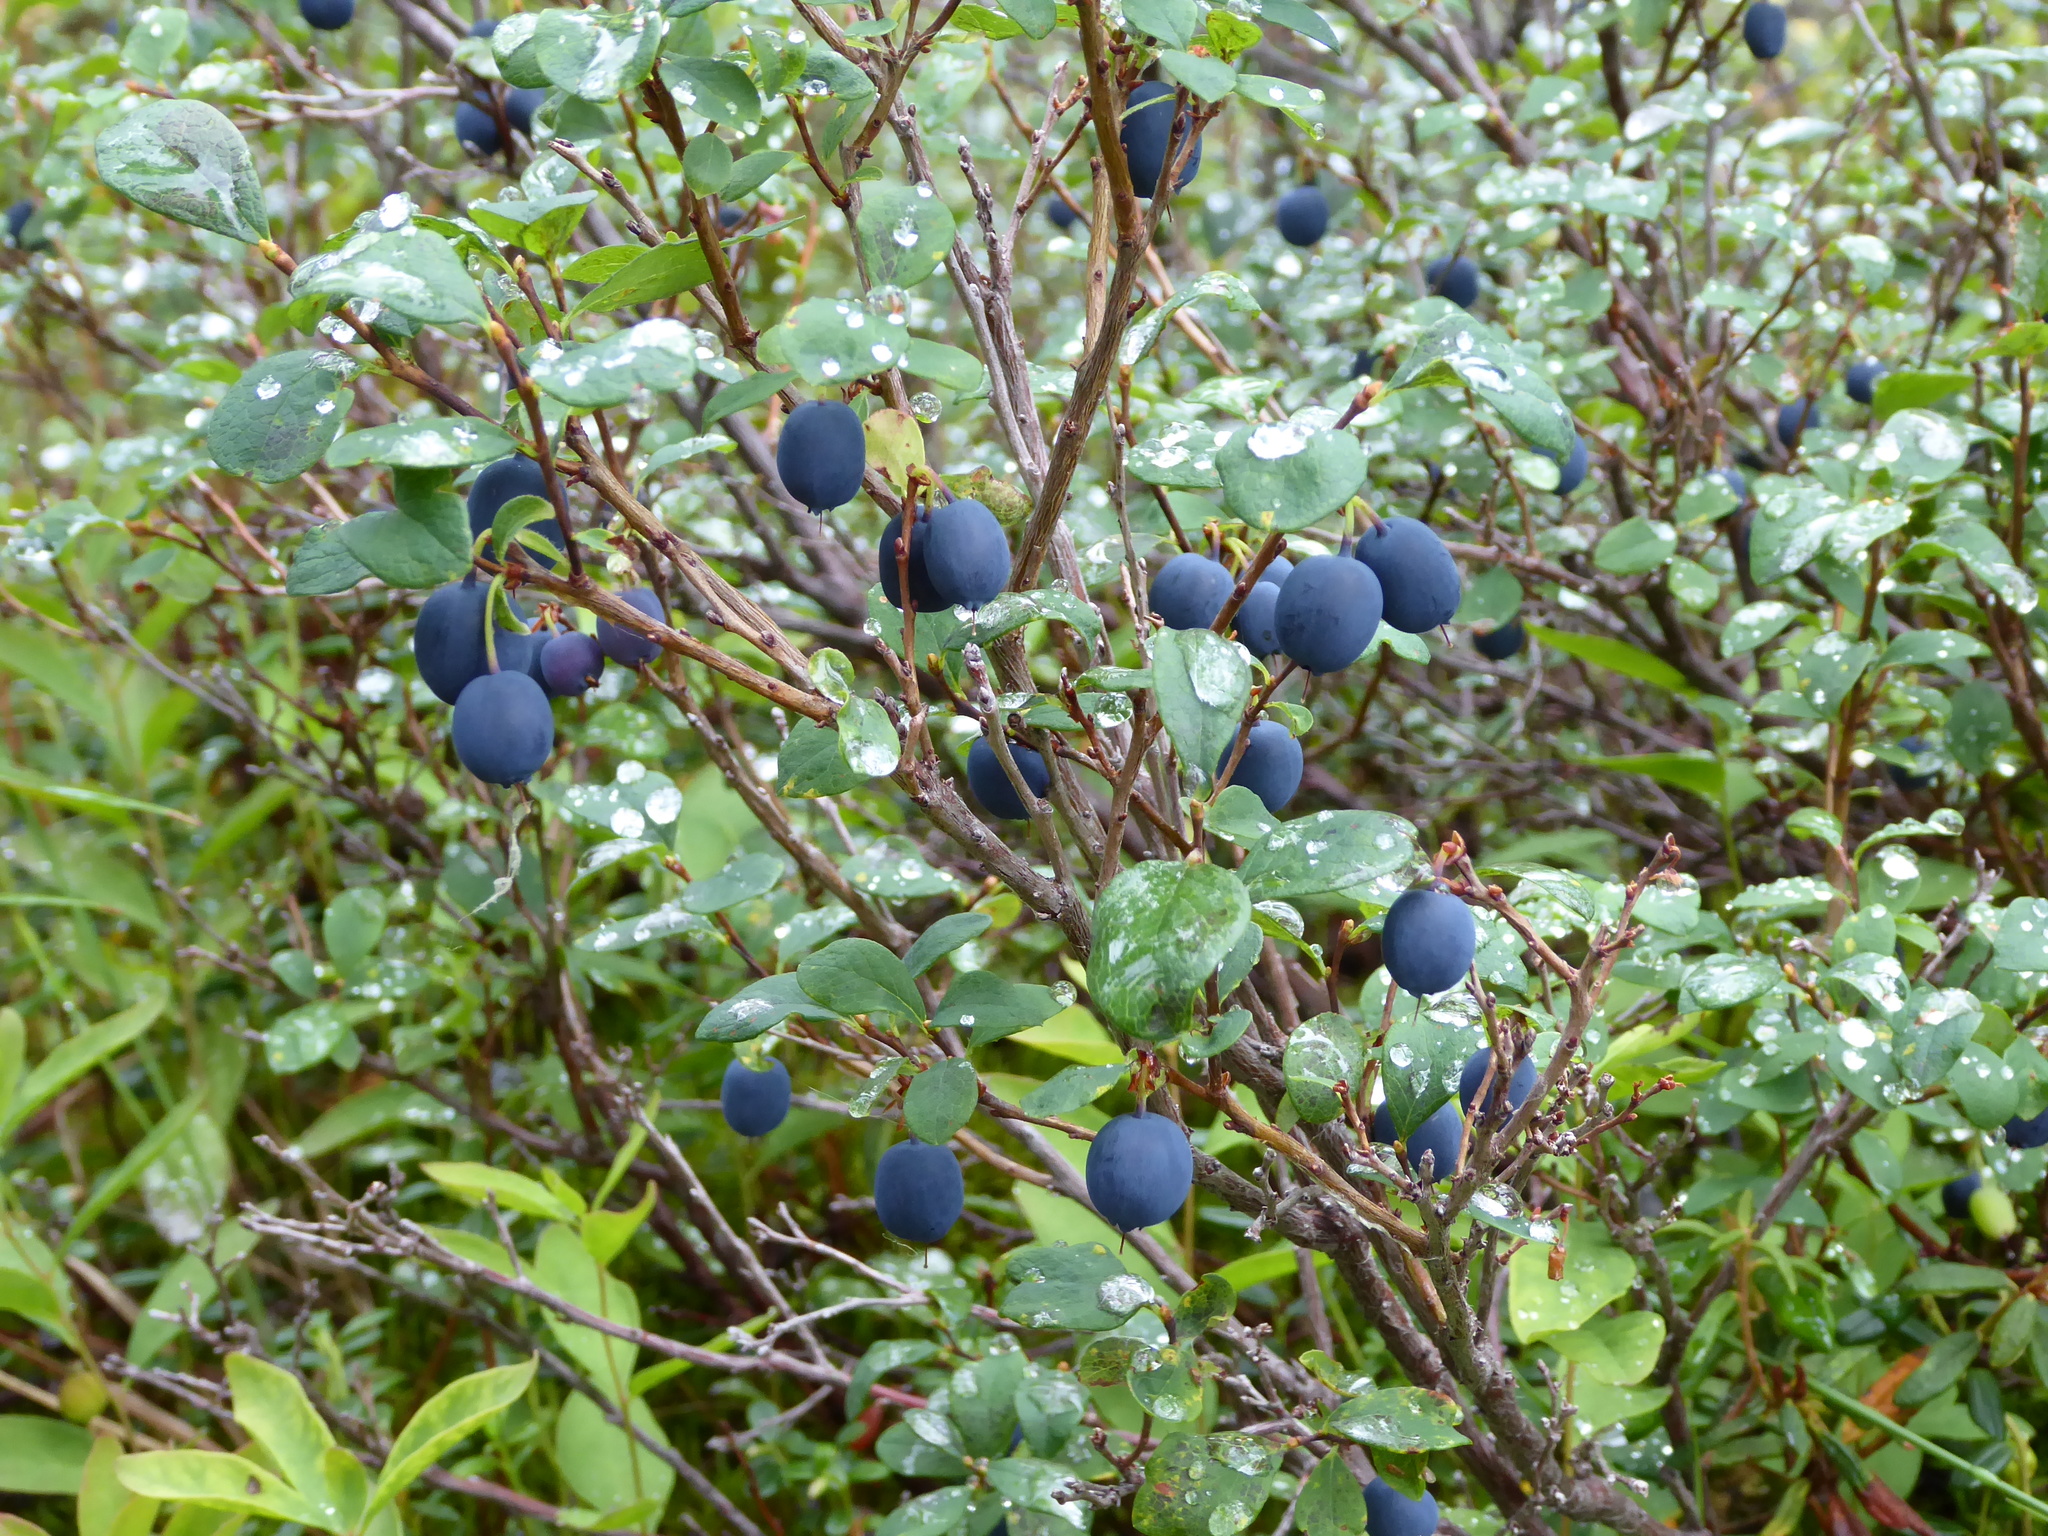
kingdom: Plantae
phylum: Tracheophyta
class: Magnoliopsida
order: Ericales
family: Ericaceae
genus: Vaccinium
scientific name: Vaccinium uliginosum
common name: Bog bilberry
